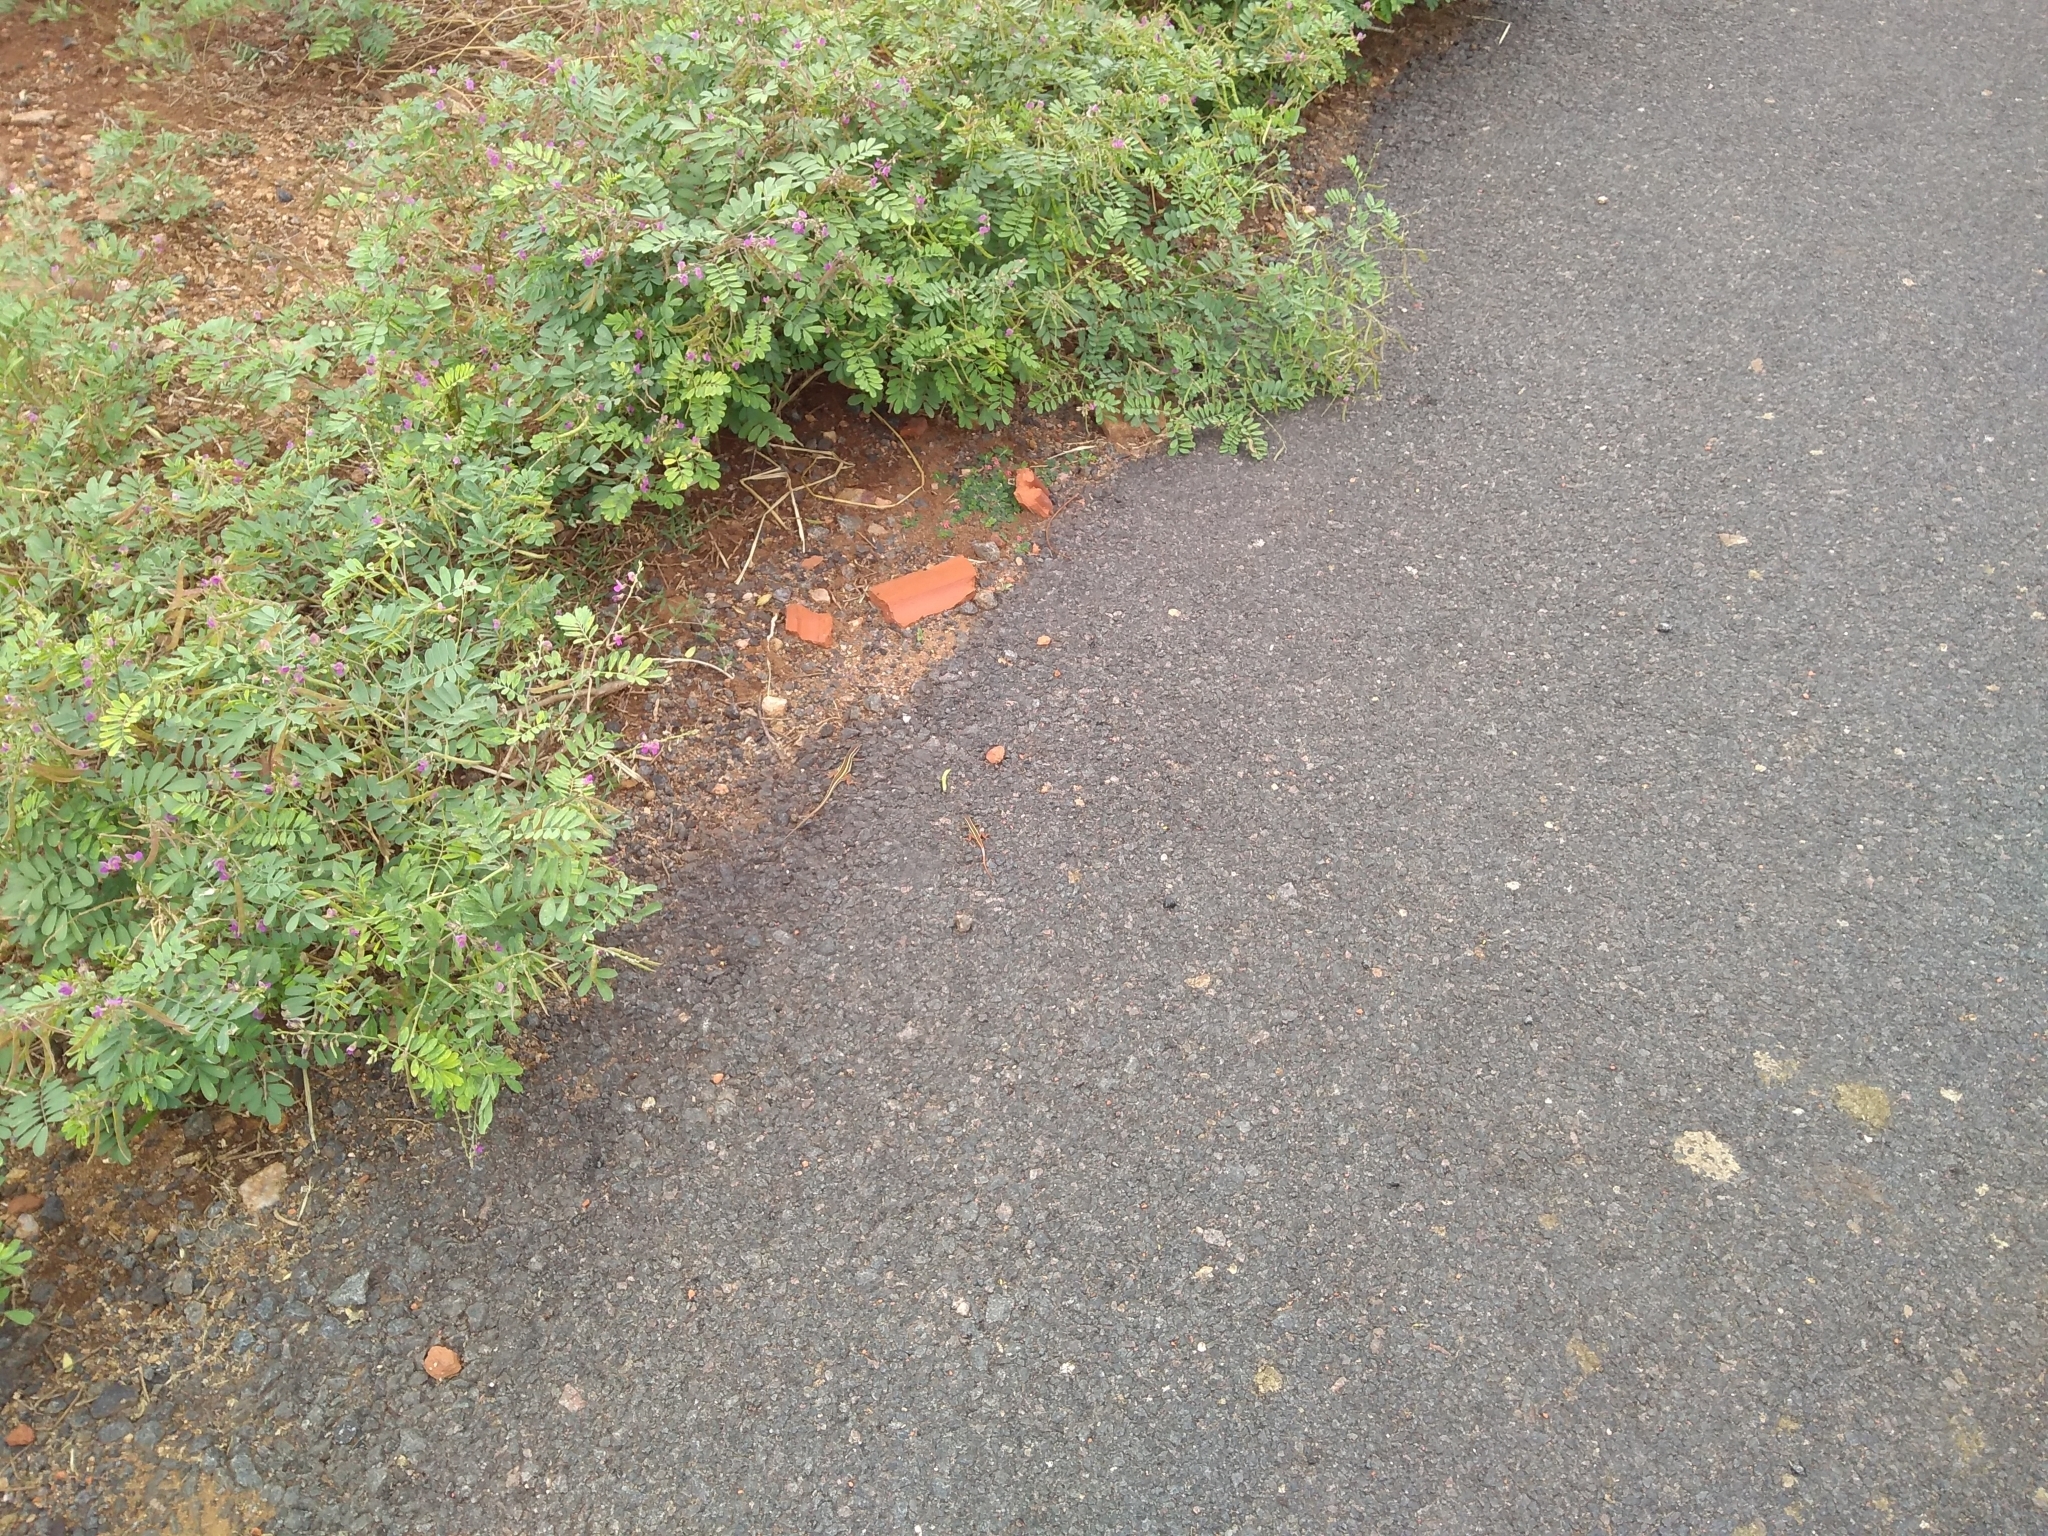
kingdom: Plantae
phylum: Tracheophyta
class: Magnoliopsida
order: Sapindales
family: Sapindaceae
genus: Cardiospermum
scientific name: Cardiospermum halicacabum
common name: Balloon vine
